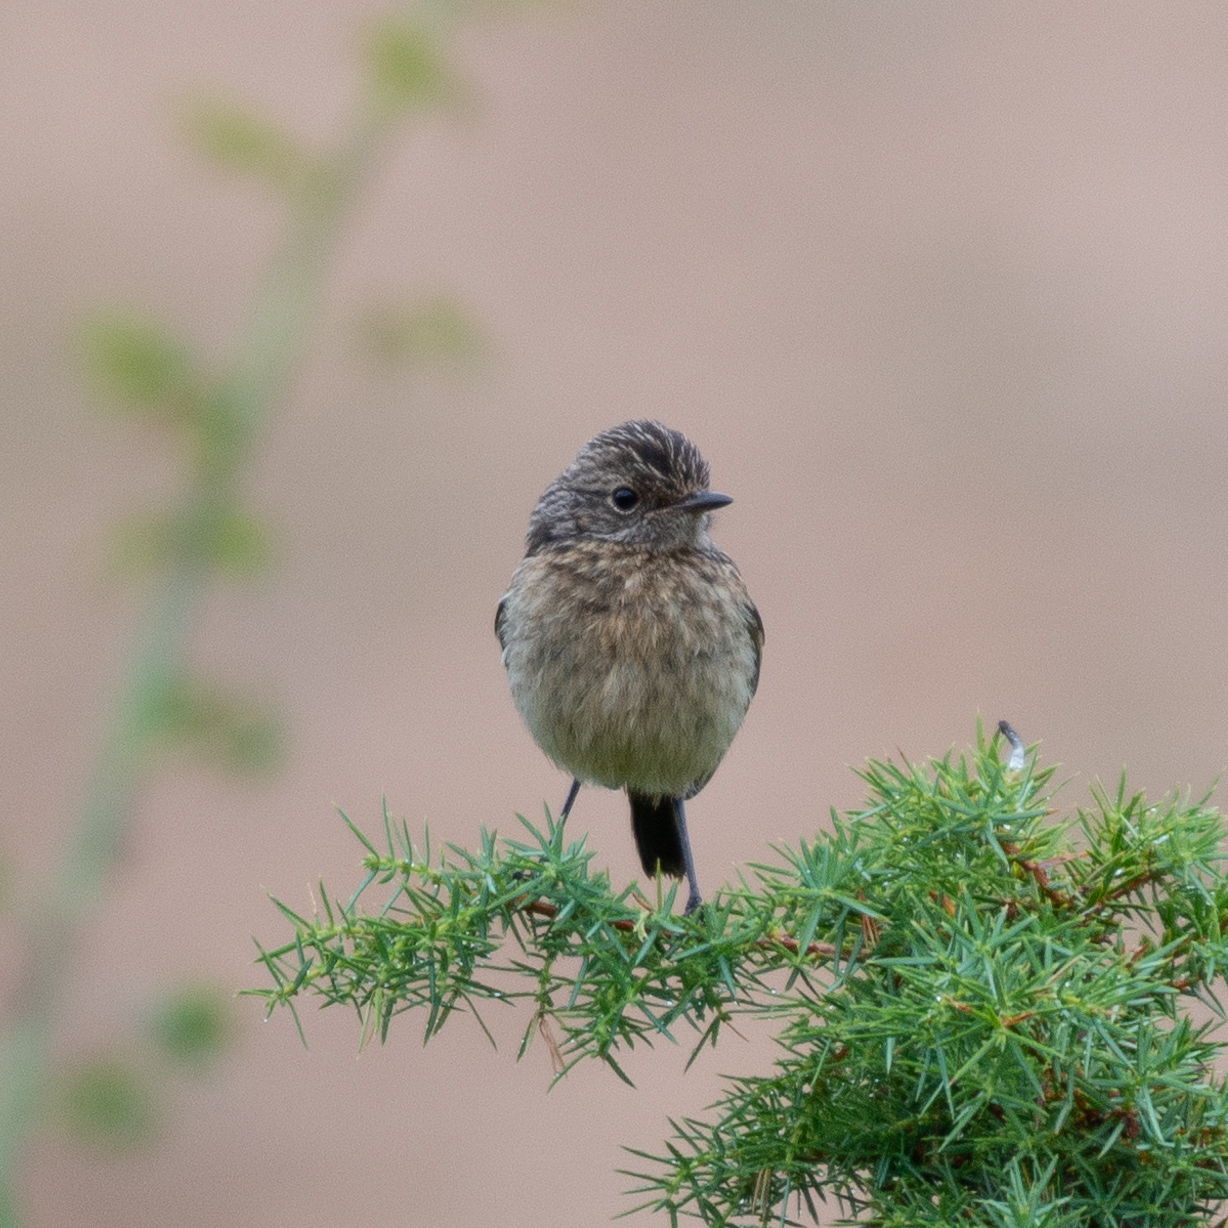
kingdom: Animalia
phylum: Chordata
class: Aves
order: Passeriformes
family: Muscicapidae
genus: Saxicola
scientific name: Saxicola rubicola
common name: European stonechat
